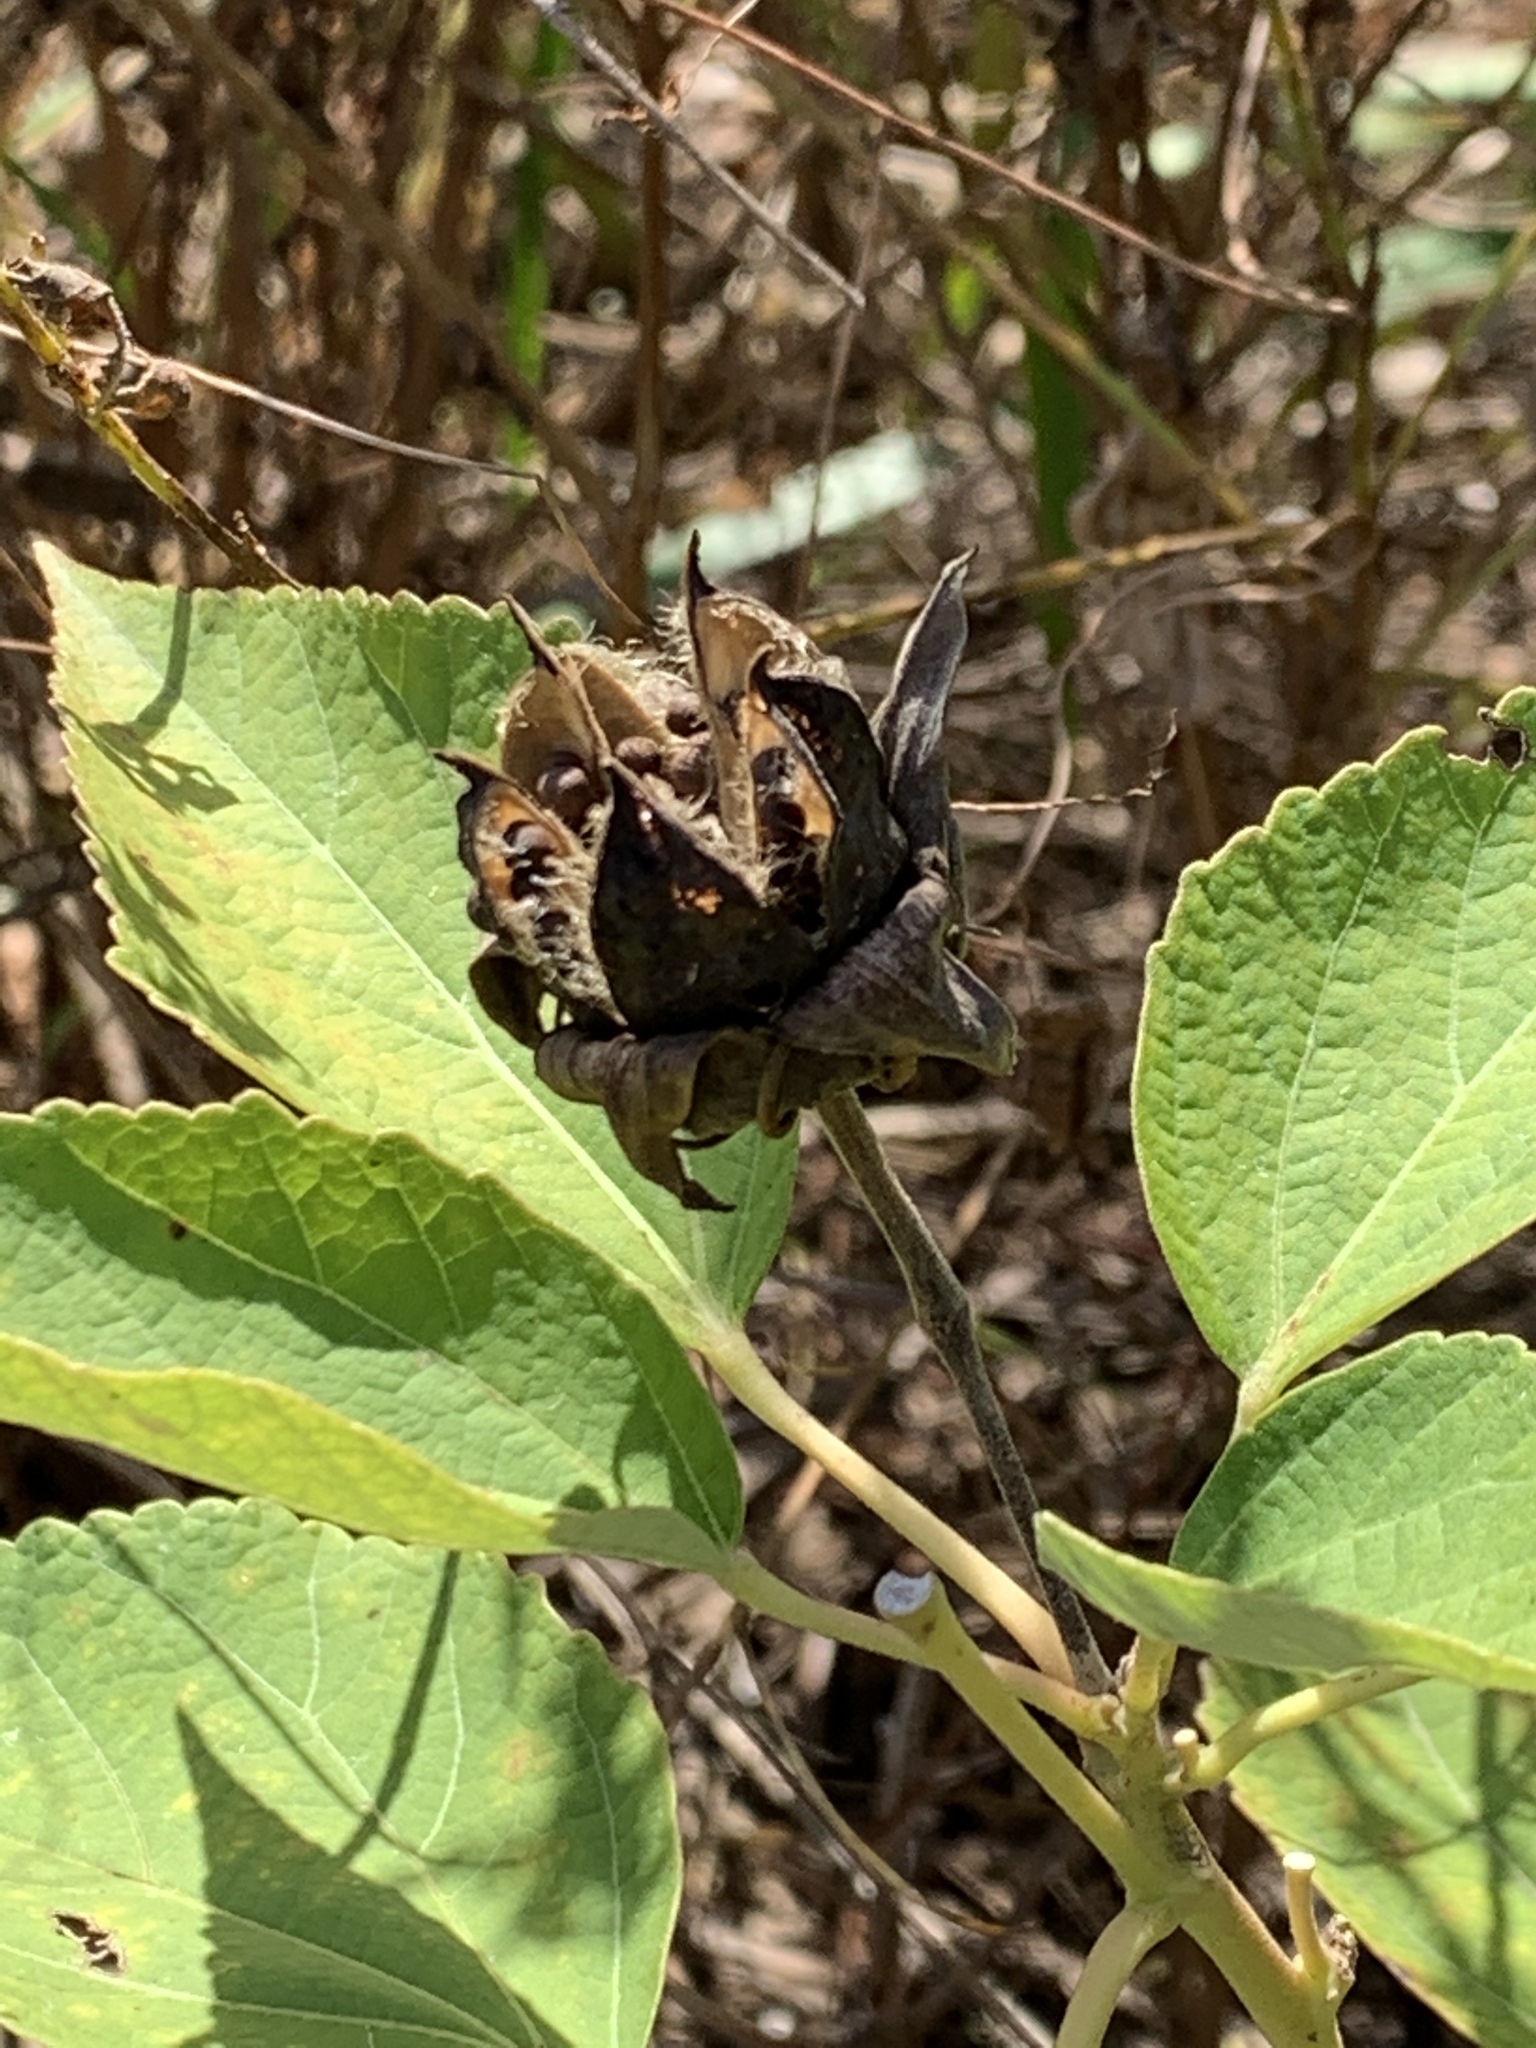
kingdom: Plantae
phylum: Tracheophyta
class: Magnoliopsida
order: Malvales
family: Malvaceae
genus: Hibiscus
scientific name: Hibiscus moscheutos
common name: Common rose-mallow
